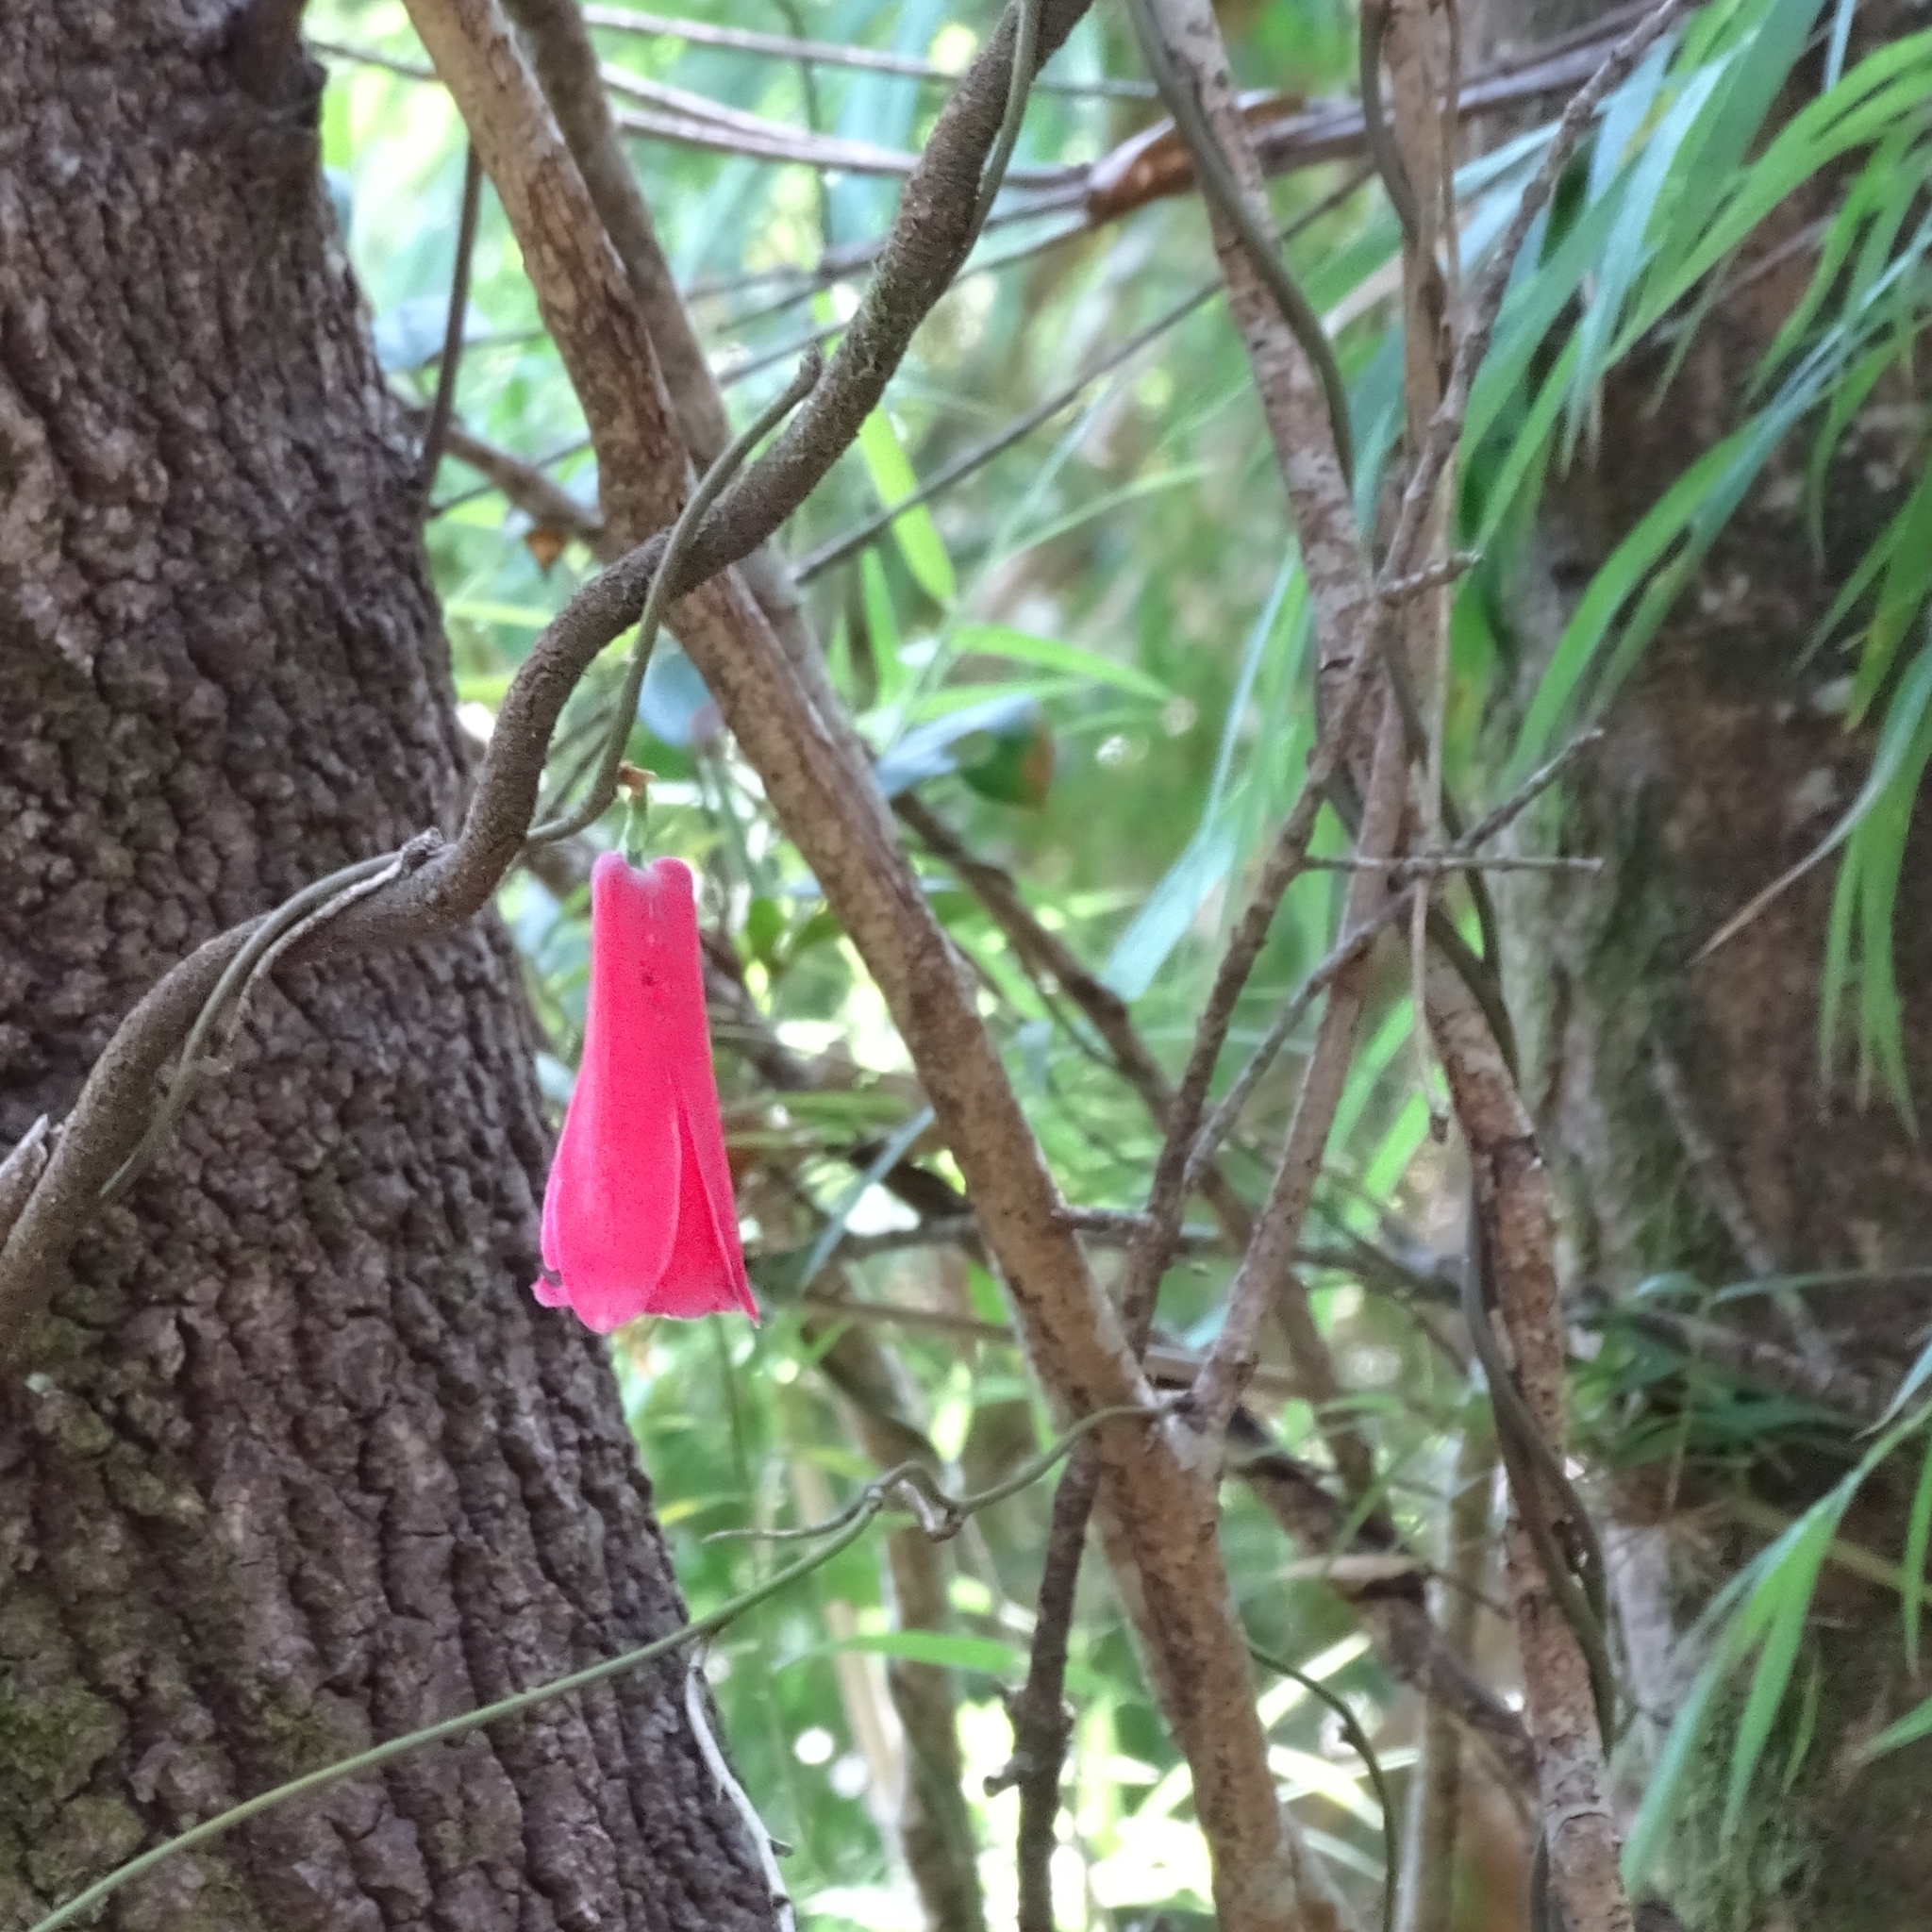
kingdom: Plantae
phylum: Tracheophyta
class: Liliopsida
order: Liliales
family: Philesiaceae
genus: Lapageria
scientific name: Lapageria rosea
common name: Chilean-bellflower
